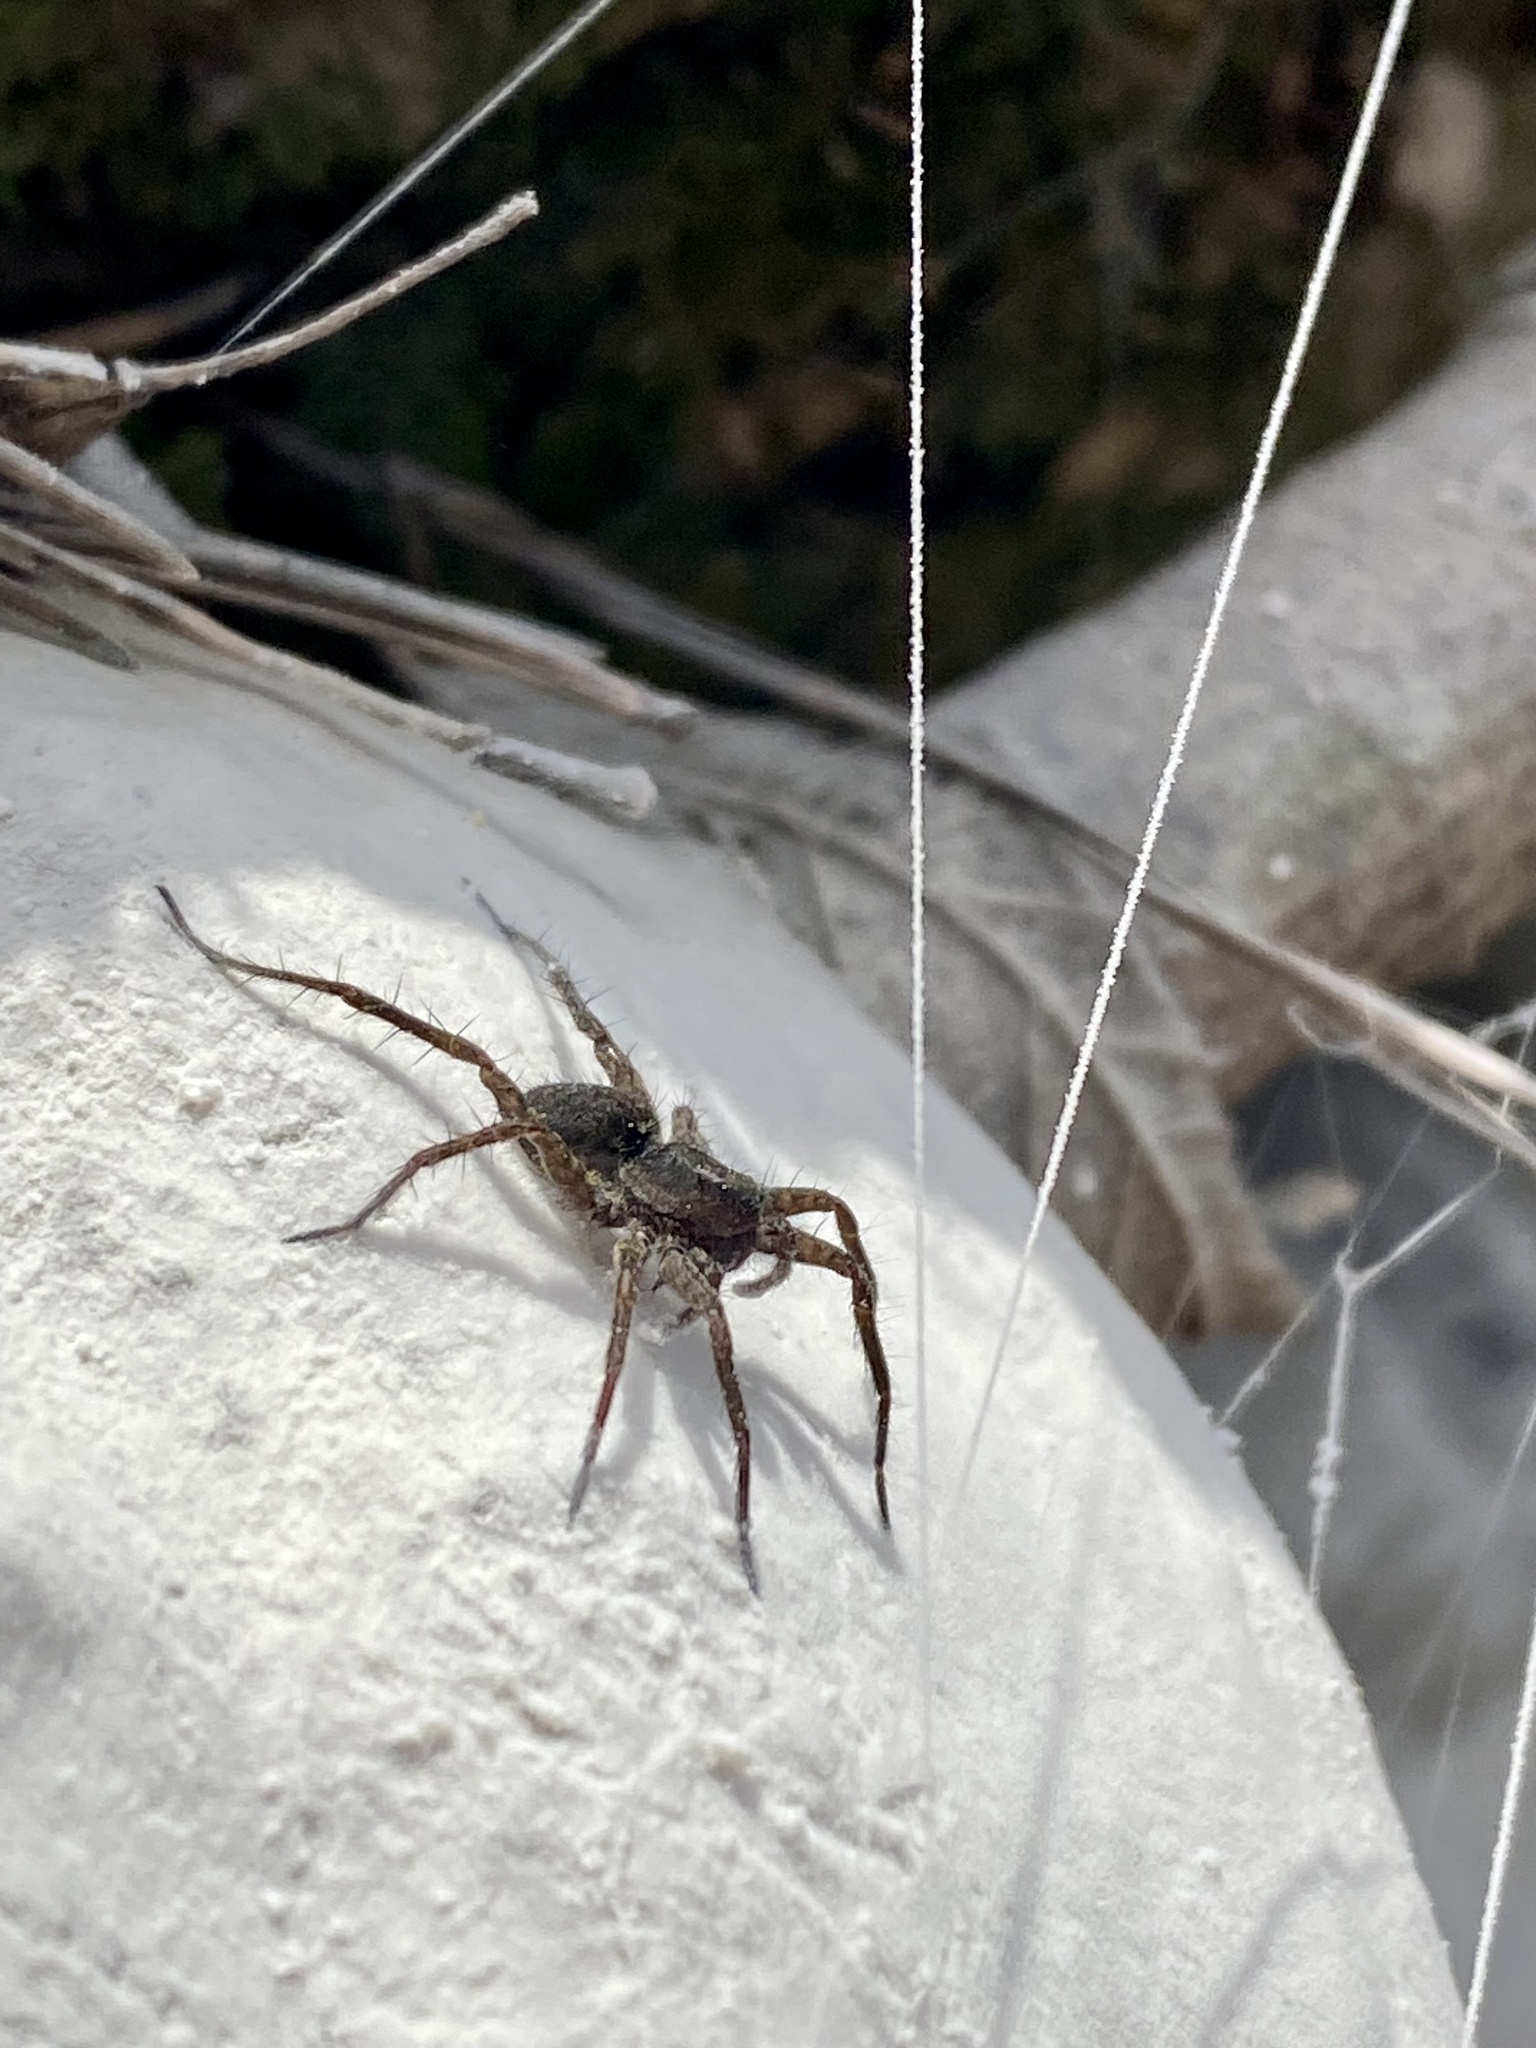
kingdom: Animalia
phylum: Arthropoda
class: Arachnida
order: Araneae
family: Lycosidae
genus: Pardosa
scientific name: Pardosa
